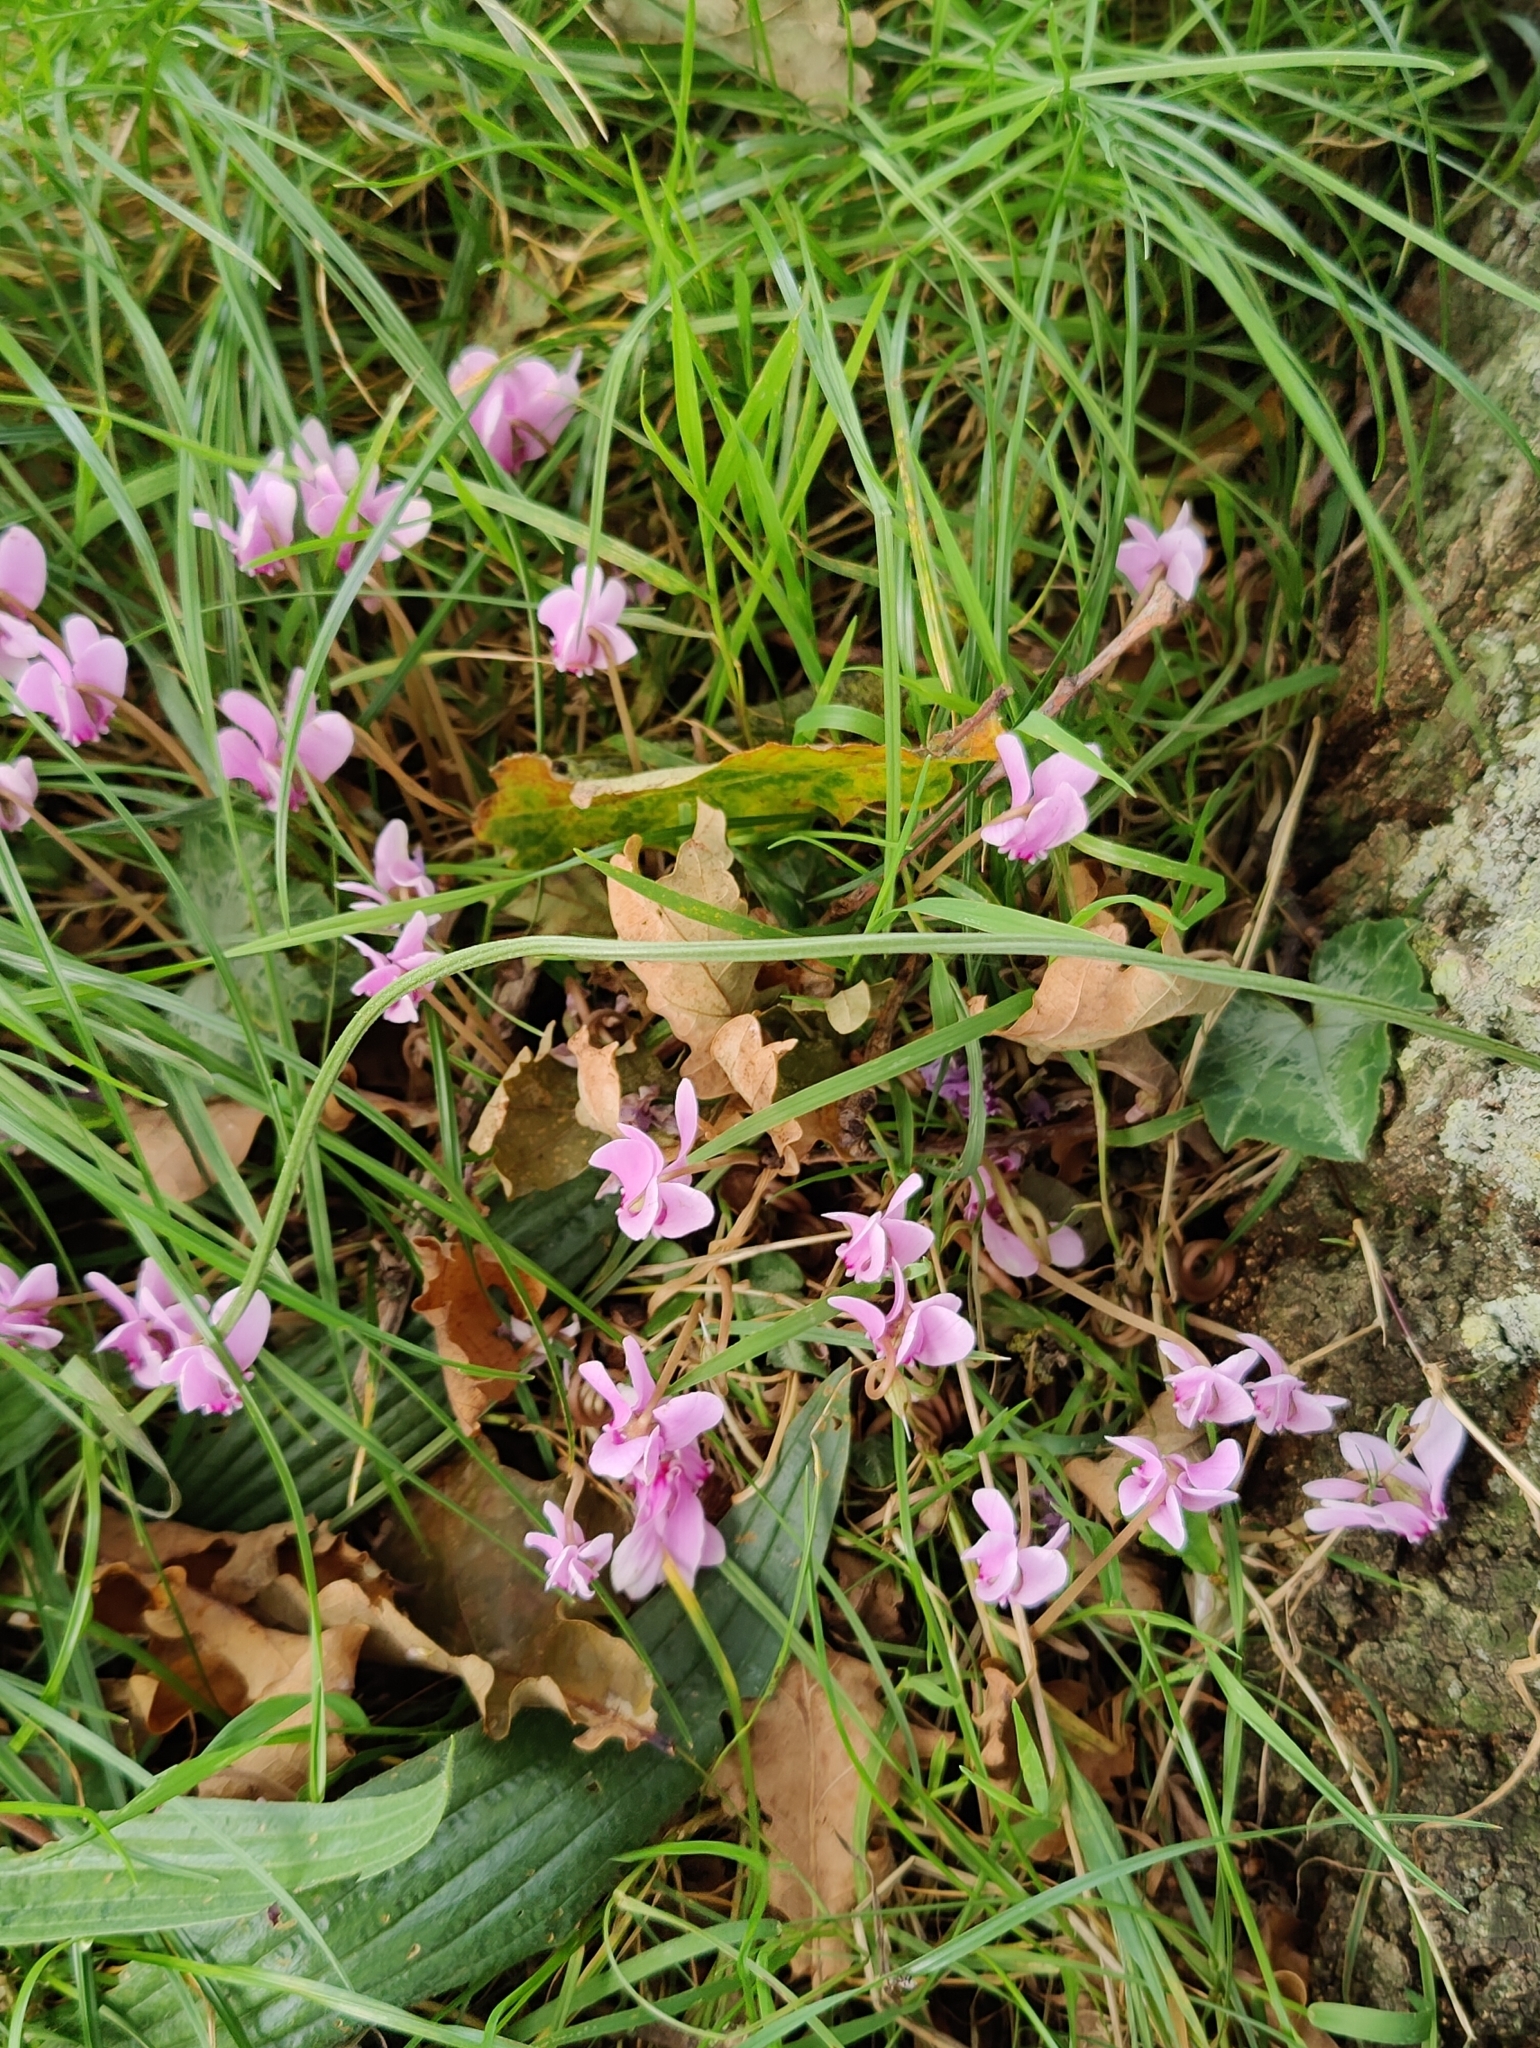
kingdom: Plantae
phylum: Tracheophyta
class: Magnoliopsida
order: Ericales
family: Primulaceae
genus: Cyclamen
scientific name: Cyclamen hederifolium
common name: Sowbread
